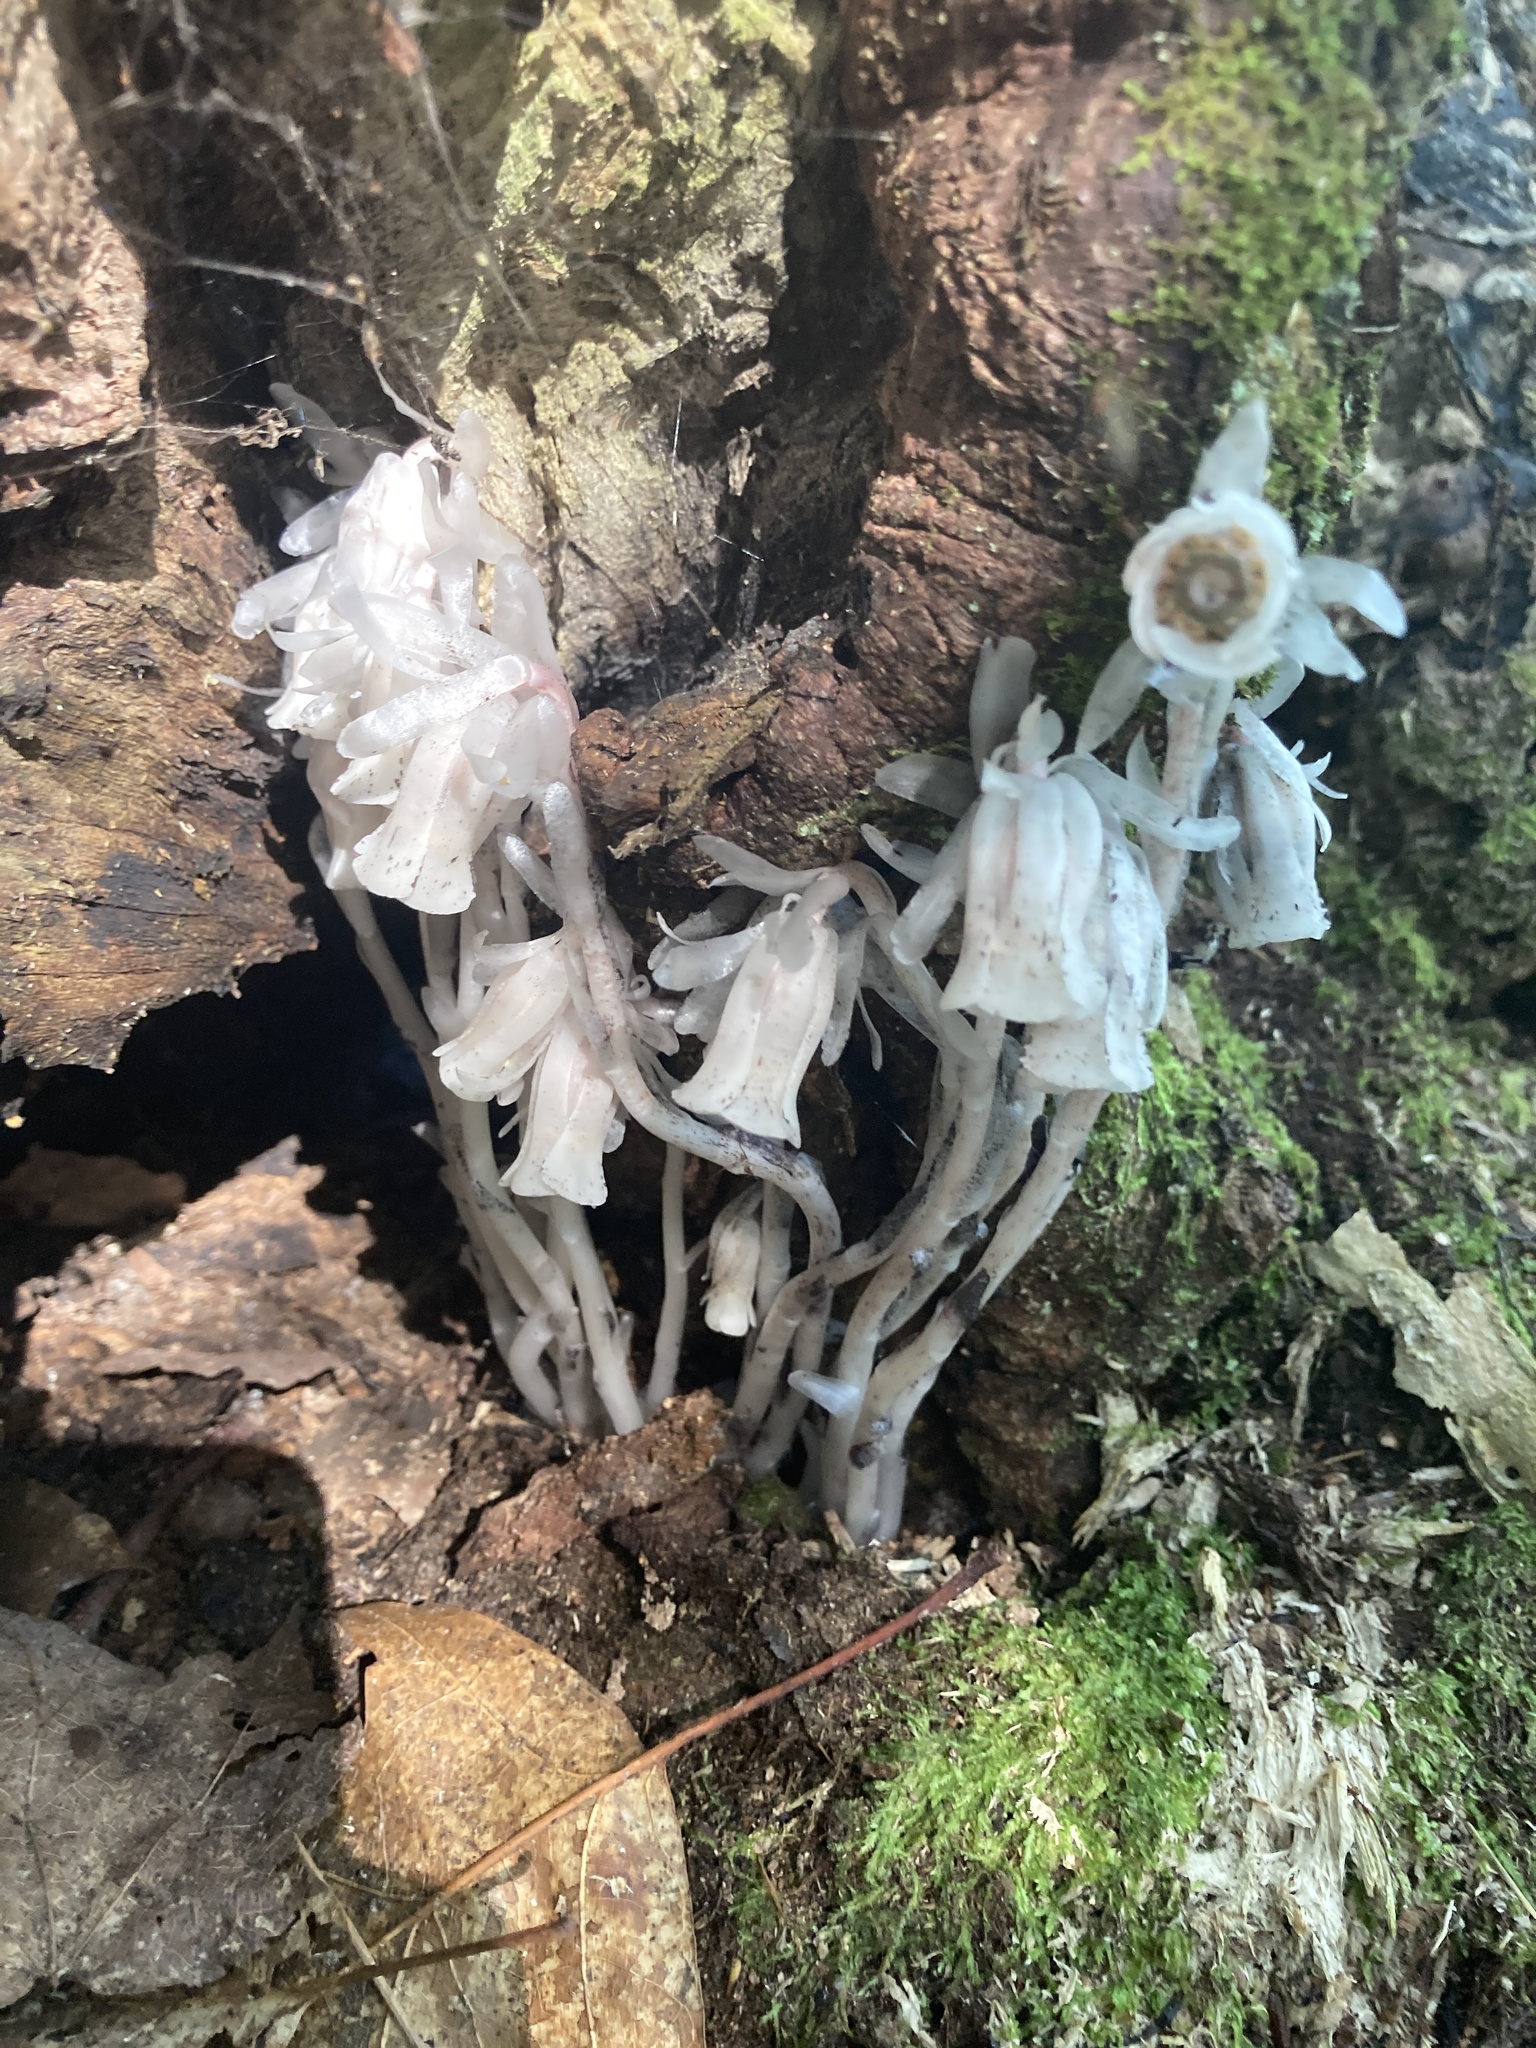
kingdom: Plantae
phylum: Tracheophyta
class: Magnoliopsida
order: Ericales
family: Ericaceae
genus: Monotropa
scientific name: Monotropa uniflora
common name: Convulsion root
